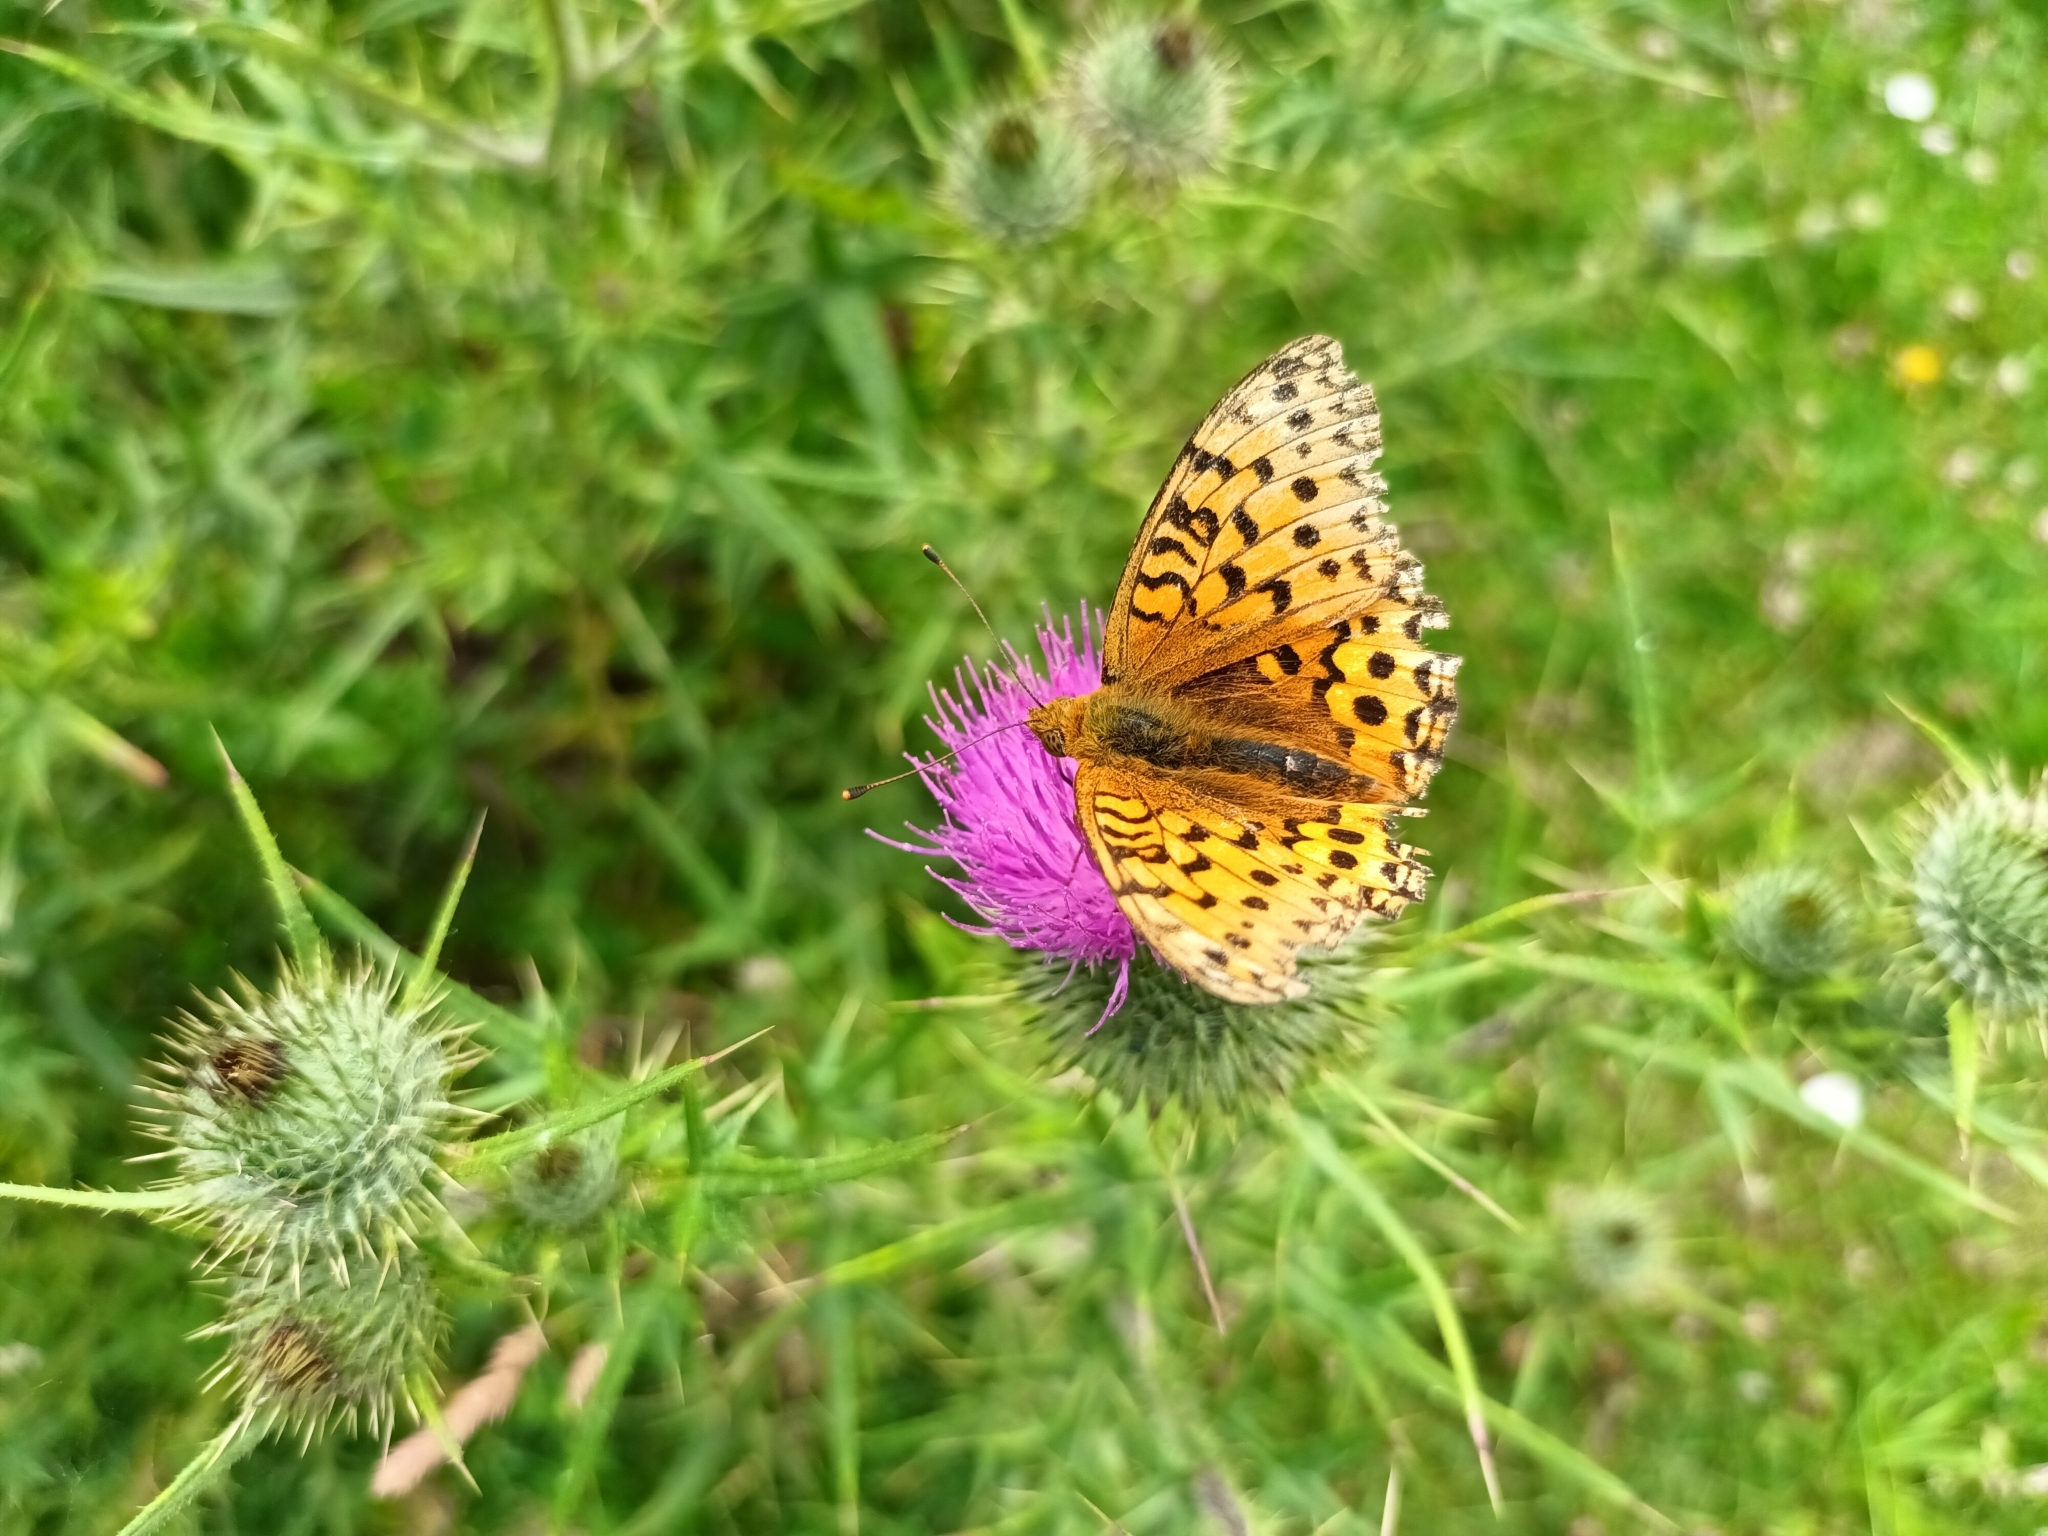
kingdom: Animalia
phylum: Arthropoda
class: Insecta
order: Lepidoptera
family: Nymphalidae
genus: Speyeria
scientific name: Speyeria aglaja
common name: Dark green fritillary
